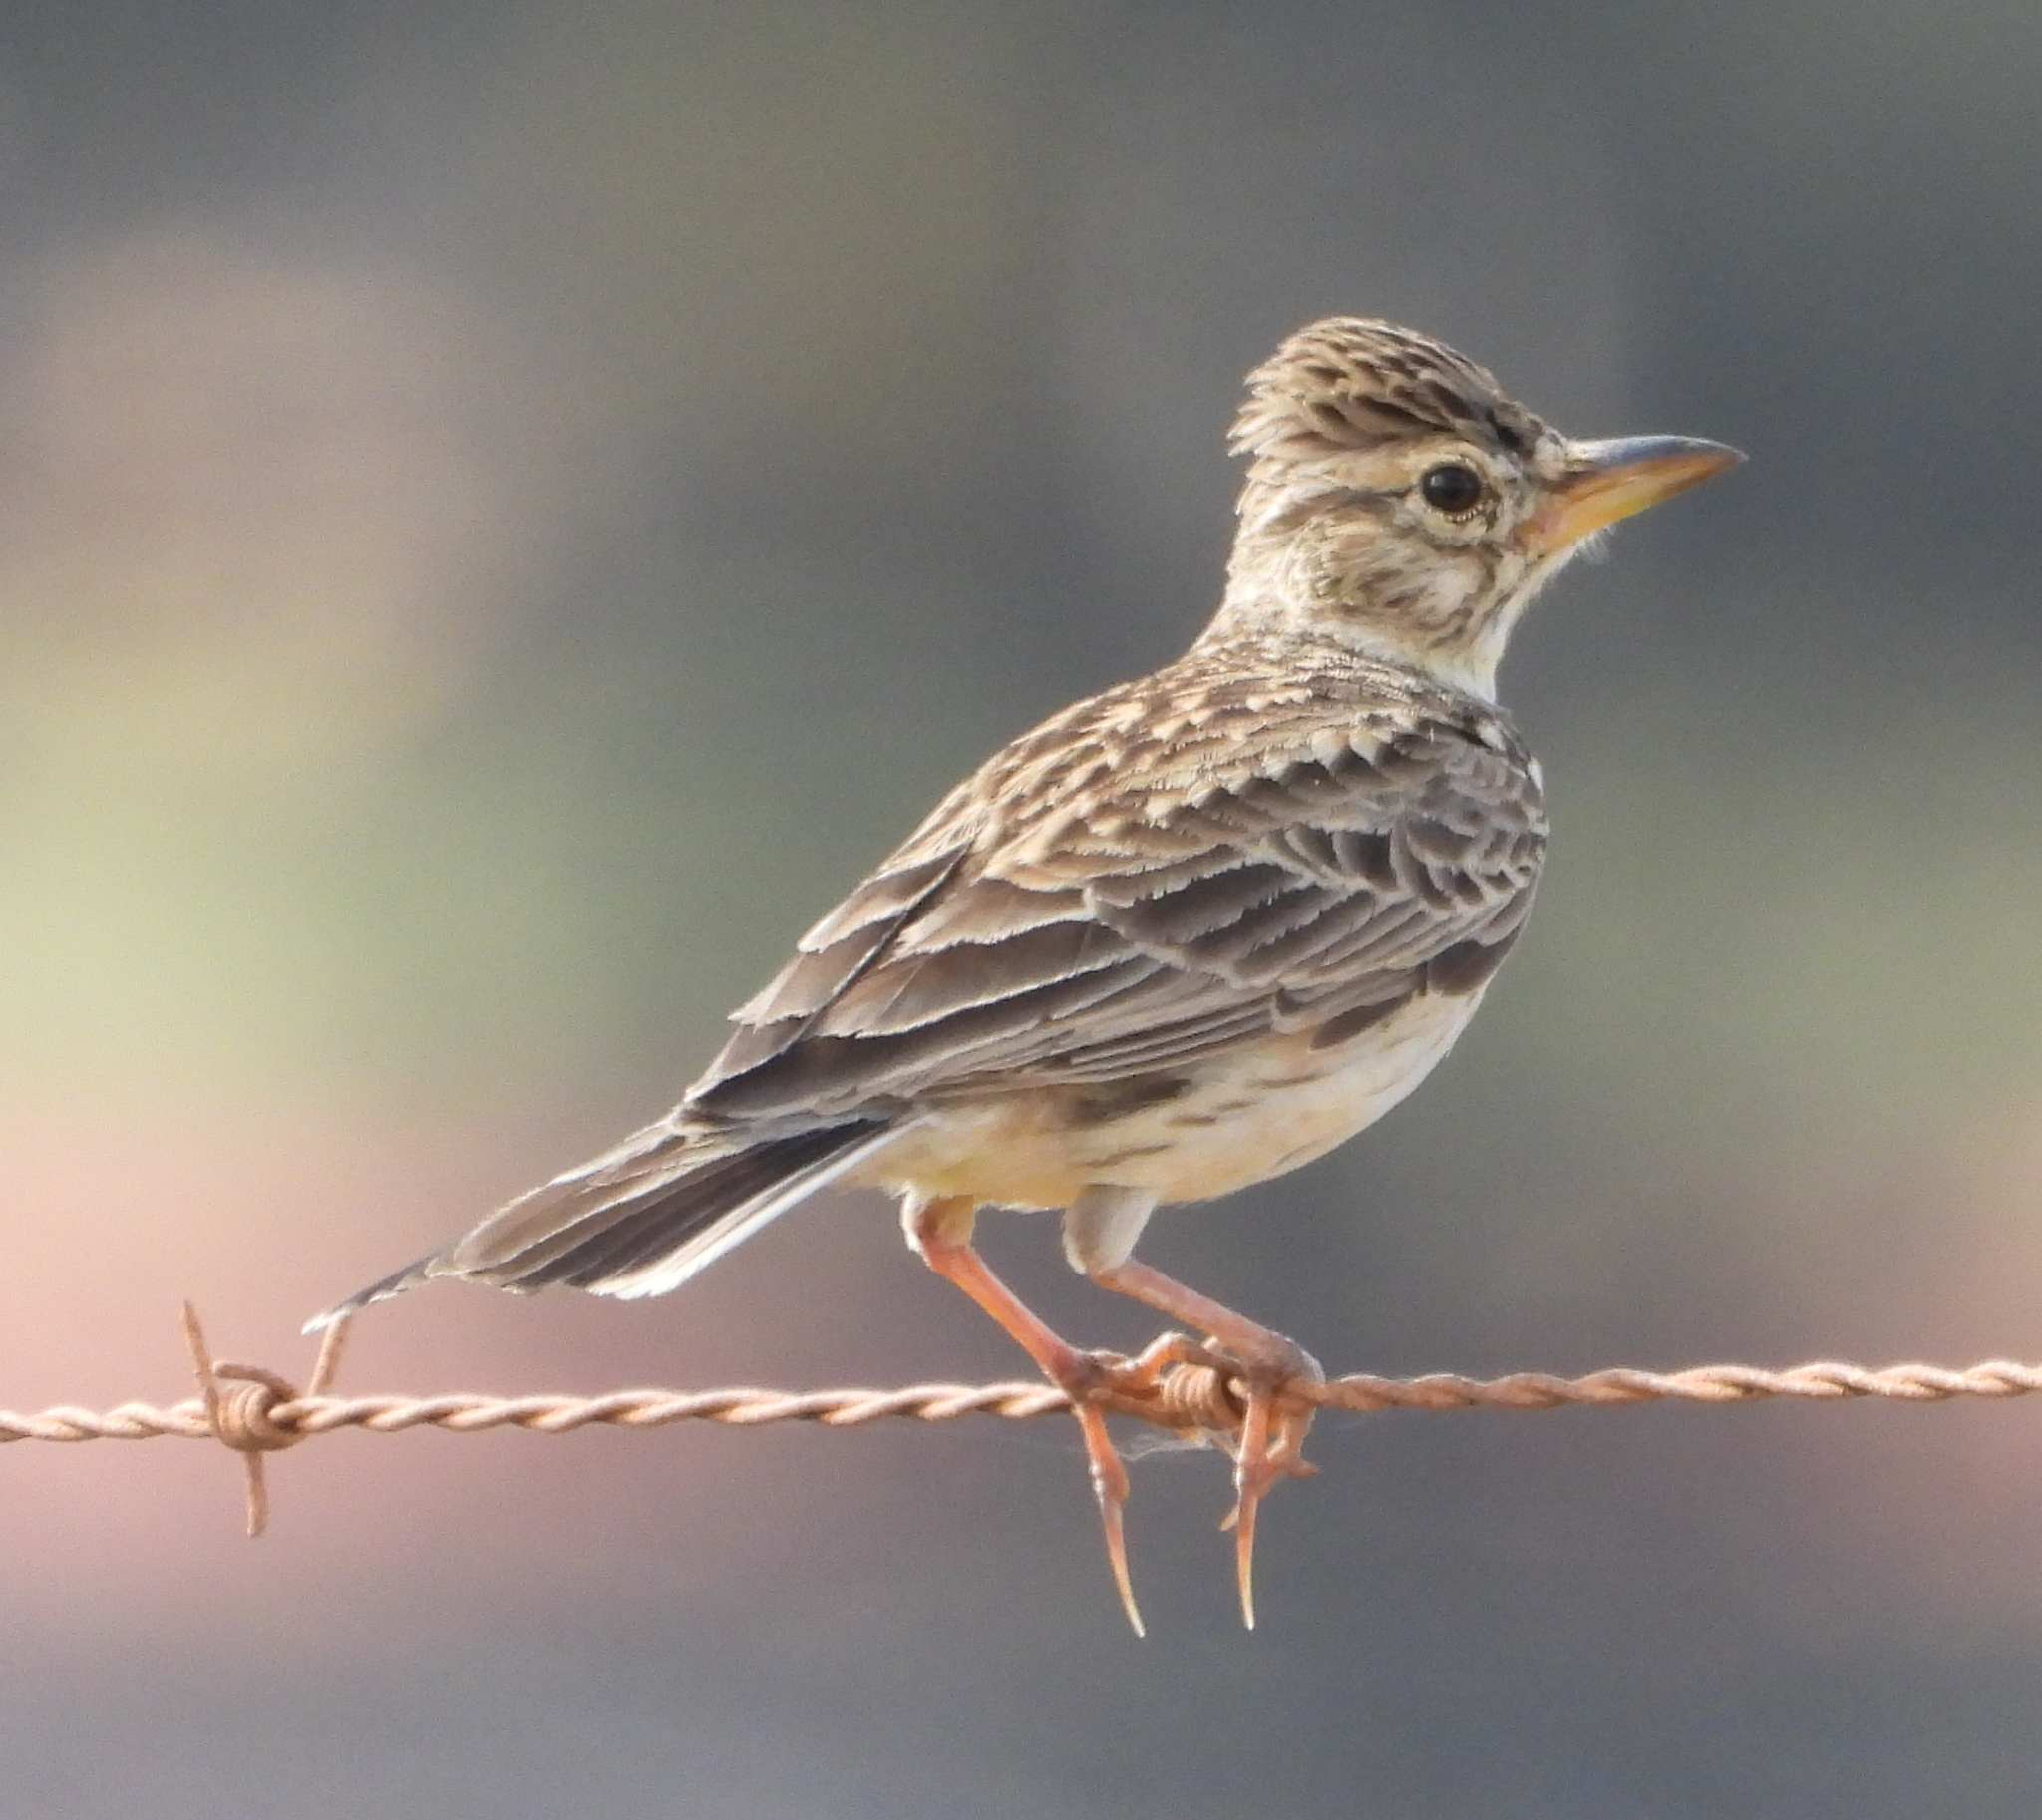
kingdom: Animalia
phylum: Chordata
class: Aves
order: Passeriformes
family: Alaudidae
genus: Galerida
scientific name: Galerida magnirostris
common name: Large-billed lark
